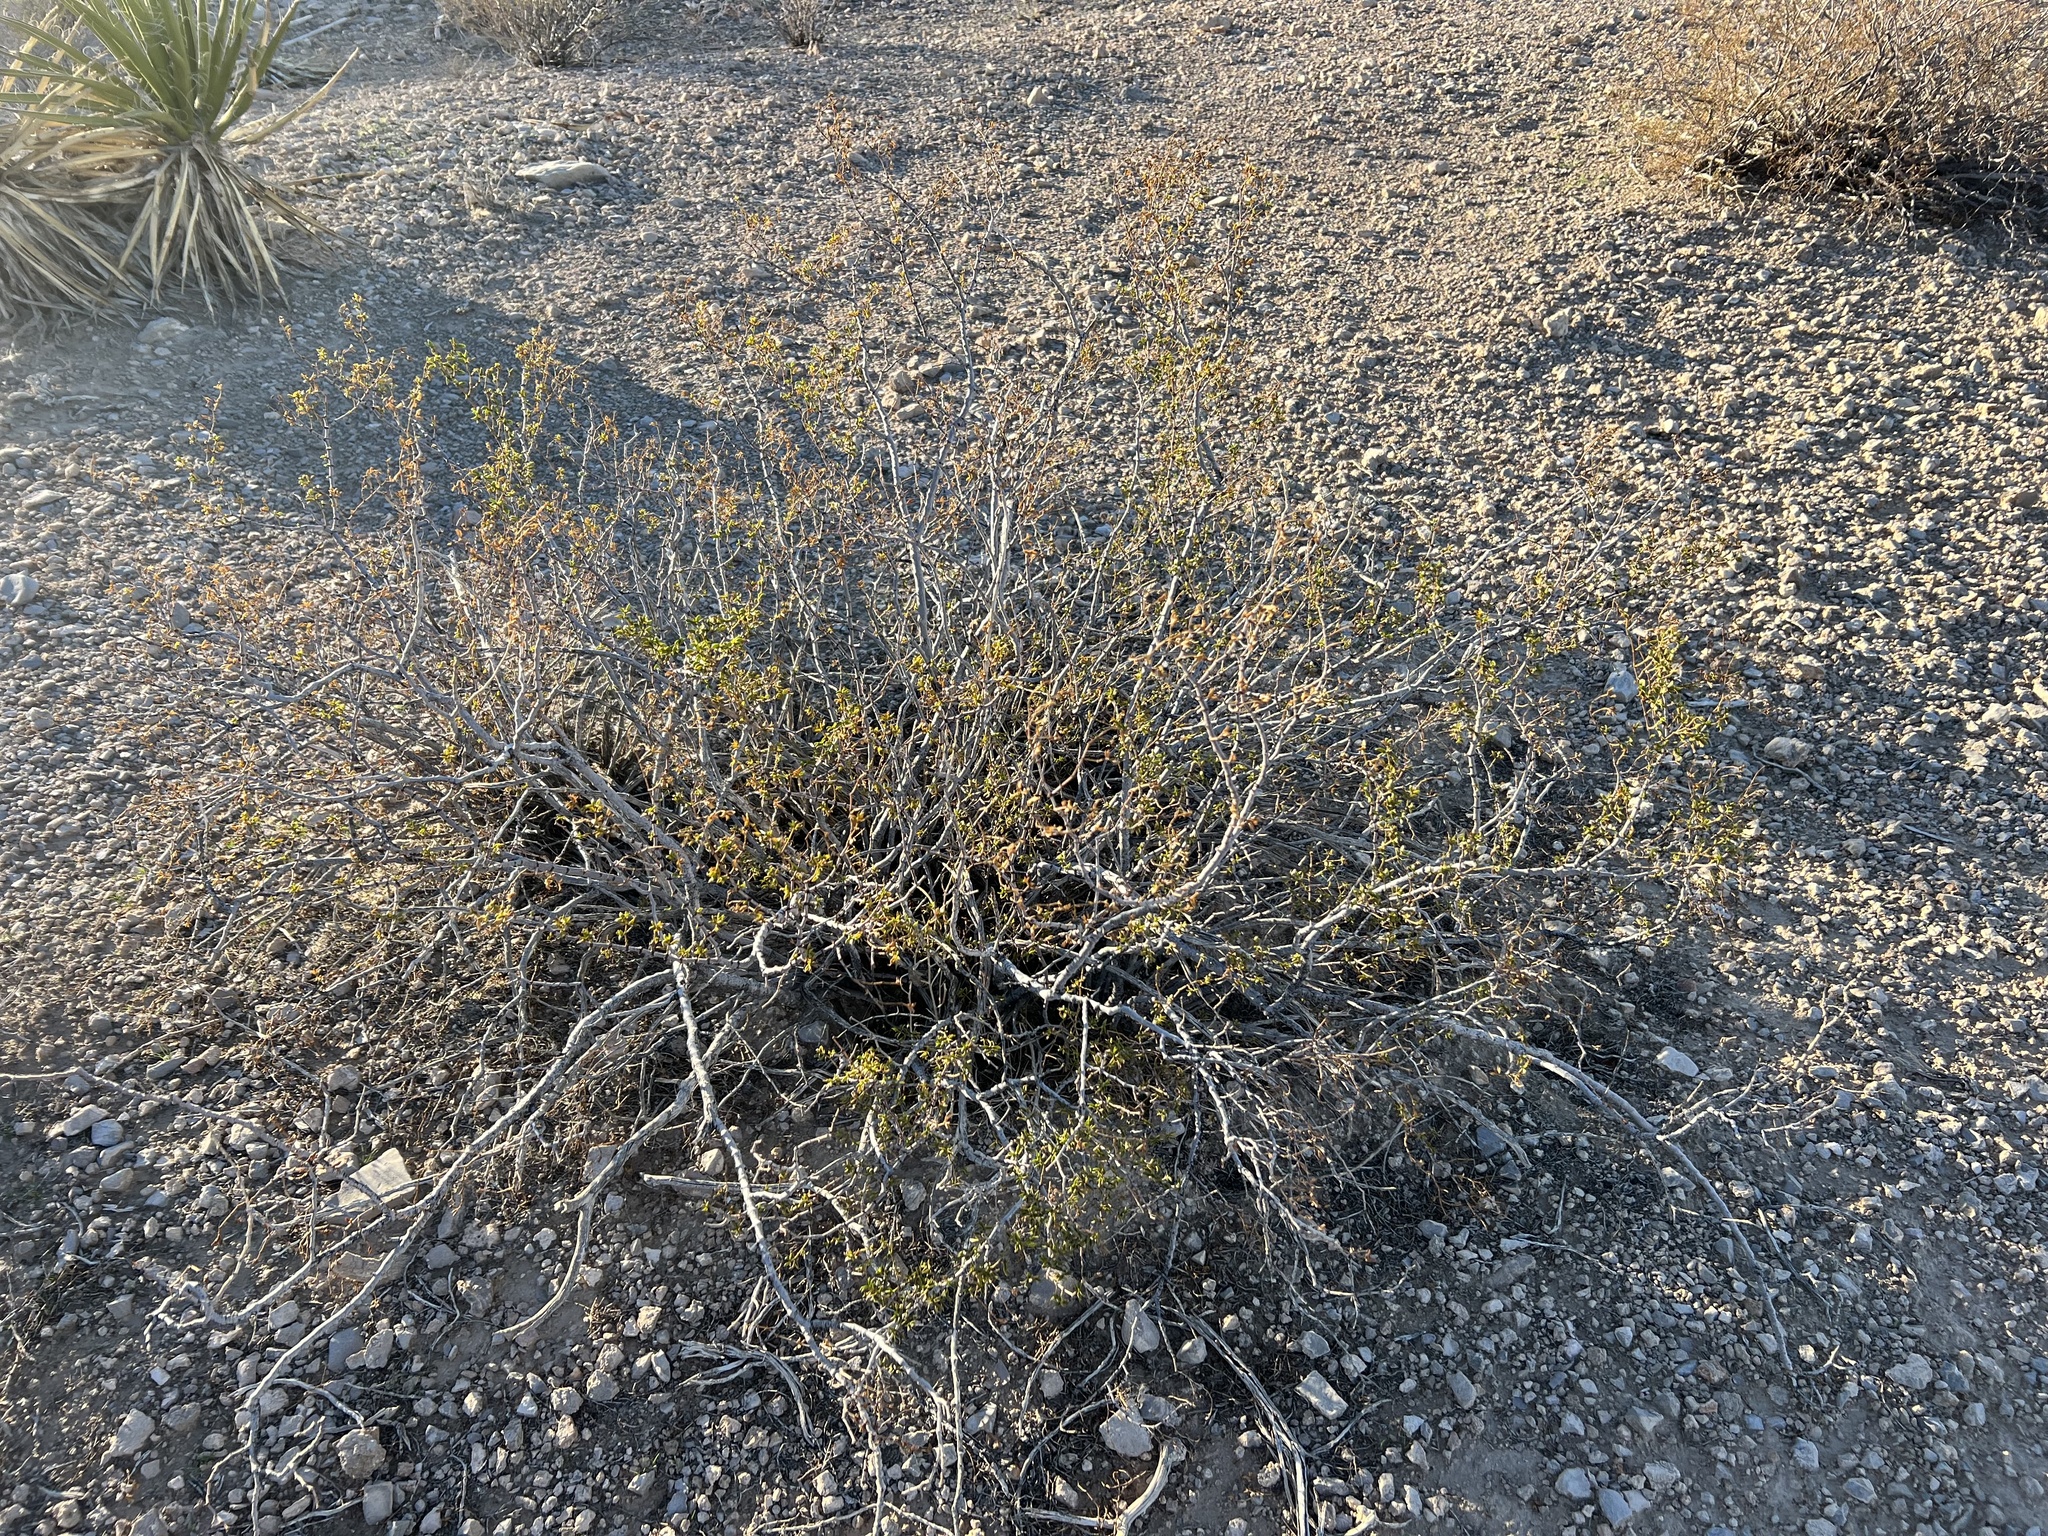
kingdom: Plantae
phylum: Tracheophyta
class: Magnoliopsida
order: Zygophyllales
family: Zygophyllaceae
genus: Larrea
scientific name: Larrea tridentata
